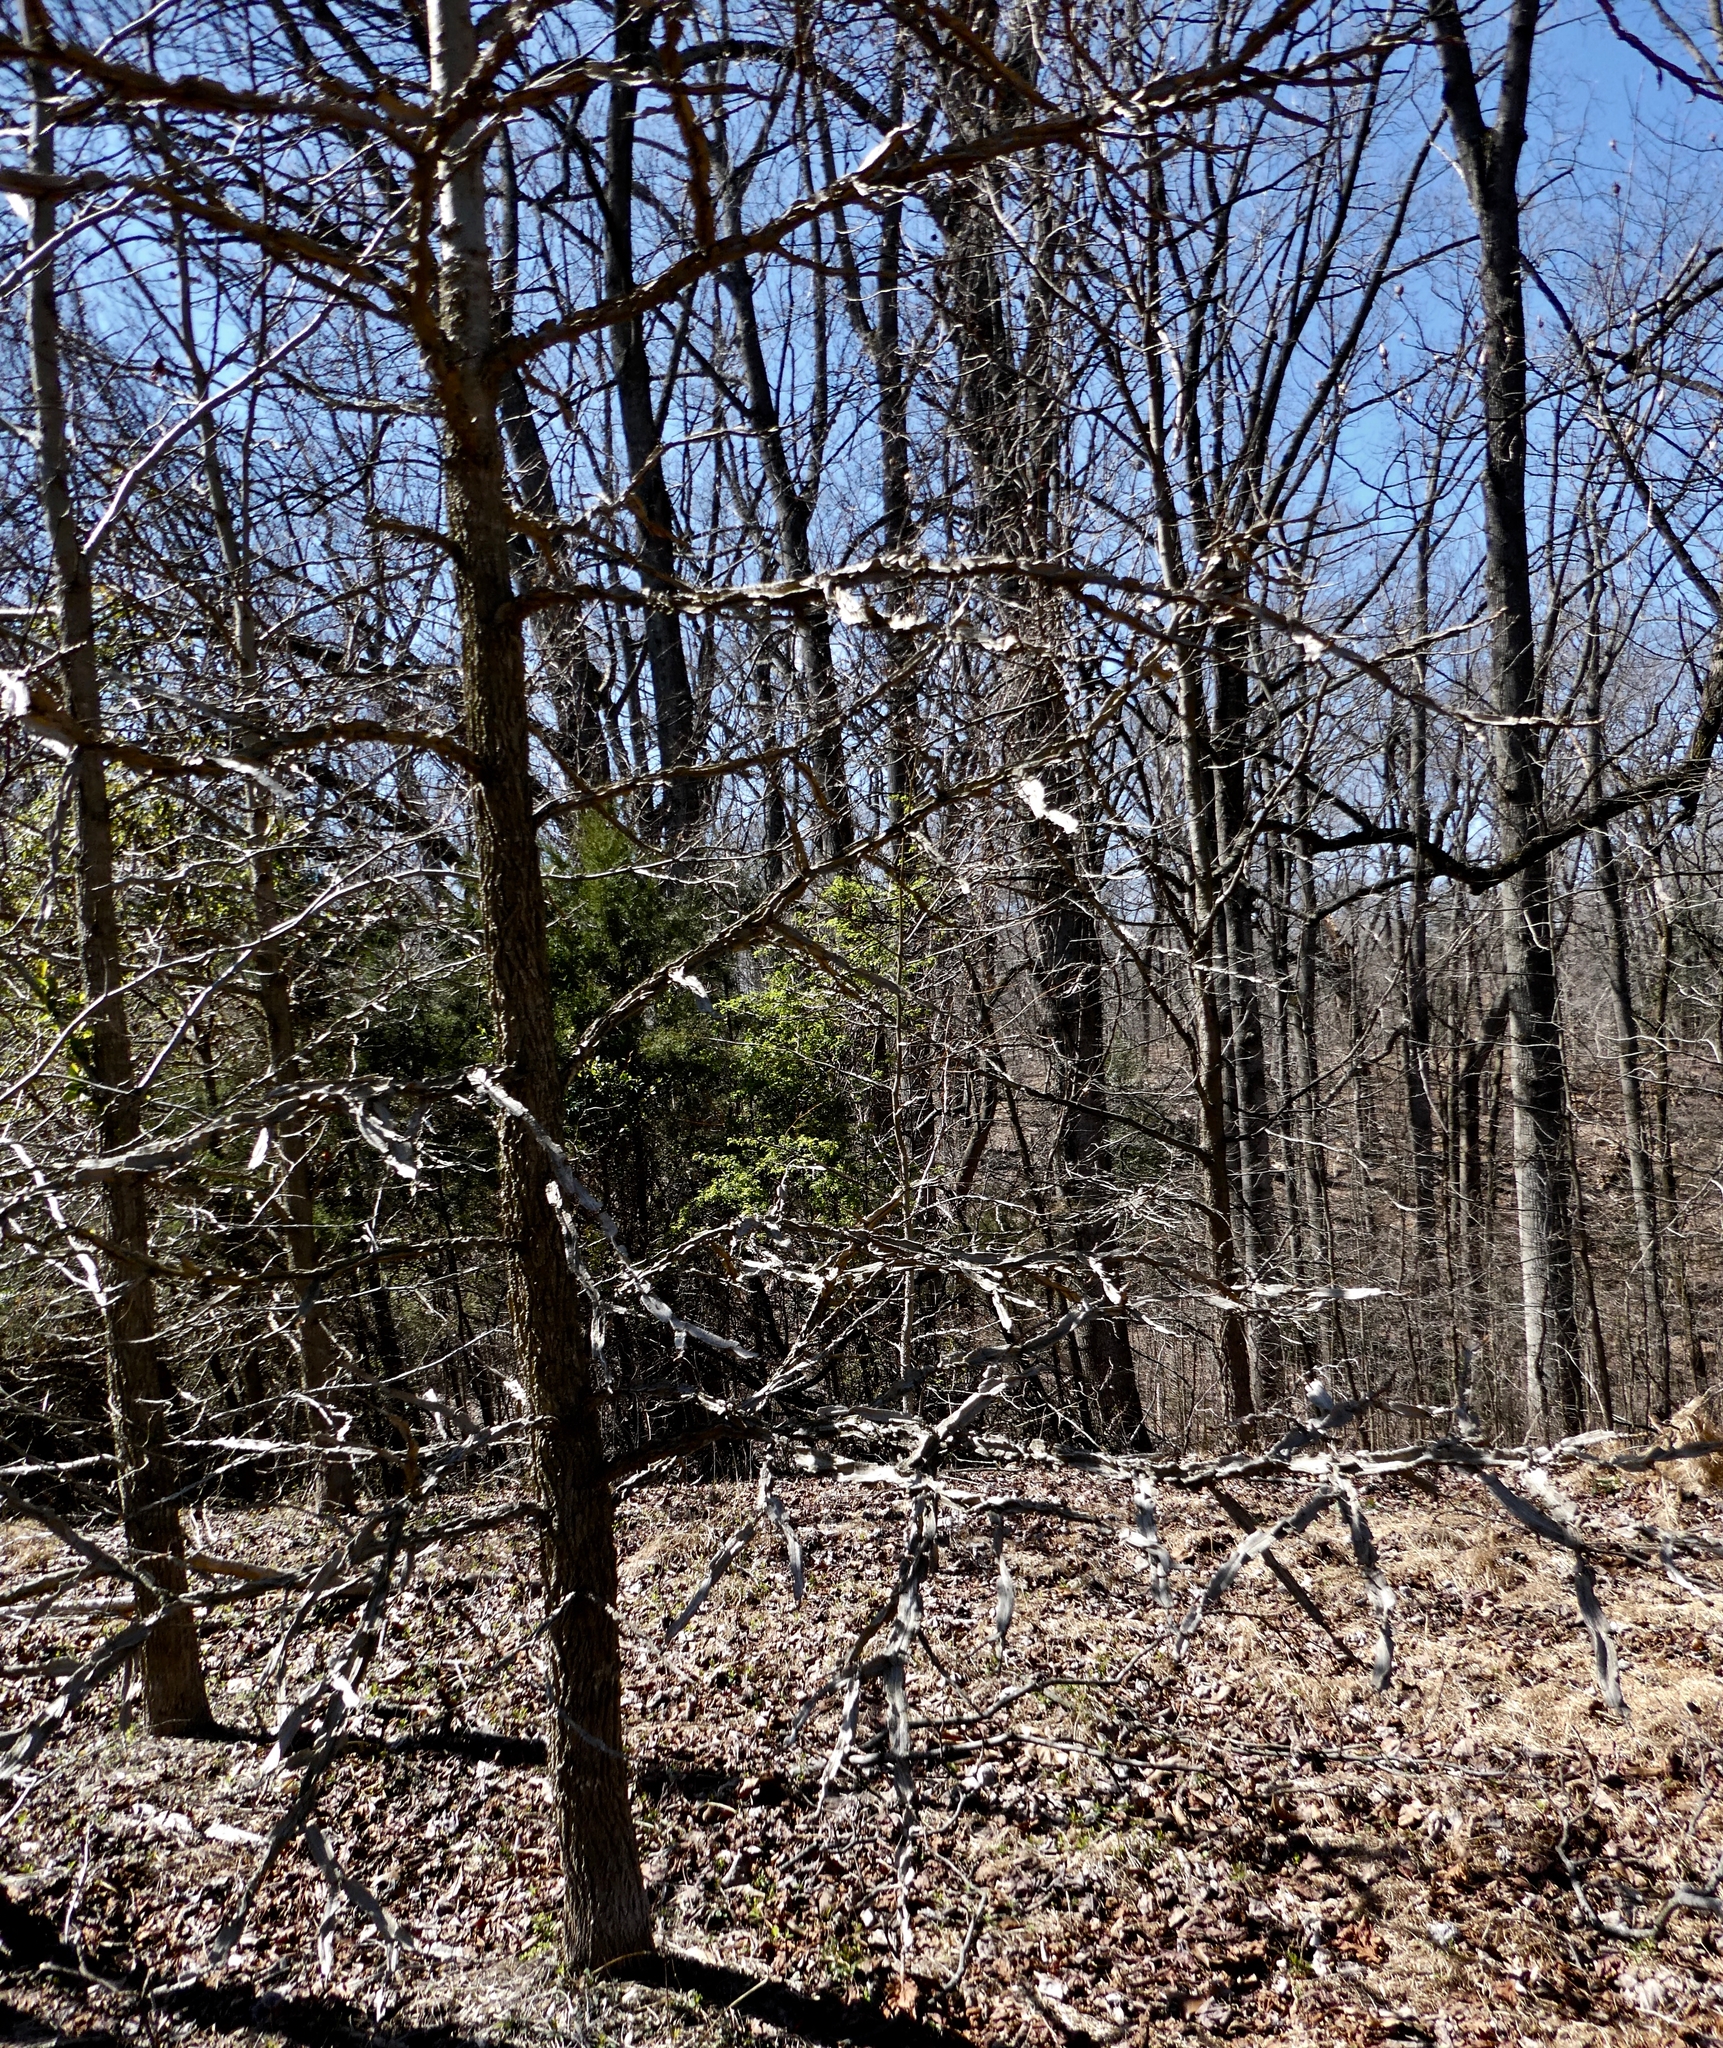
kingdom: Plantae
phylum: Tracheophyta
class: Magnoliopsida
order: Saxifragales
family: Altingiaceae
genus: Liquidambar
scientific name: Liquidambar styraciflua
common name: Sweet gum
